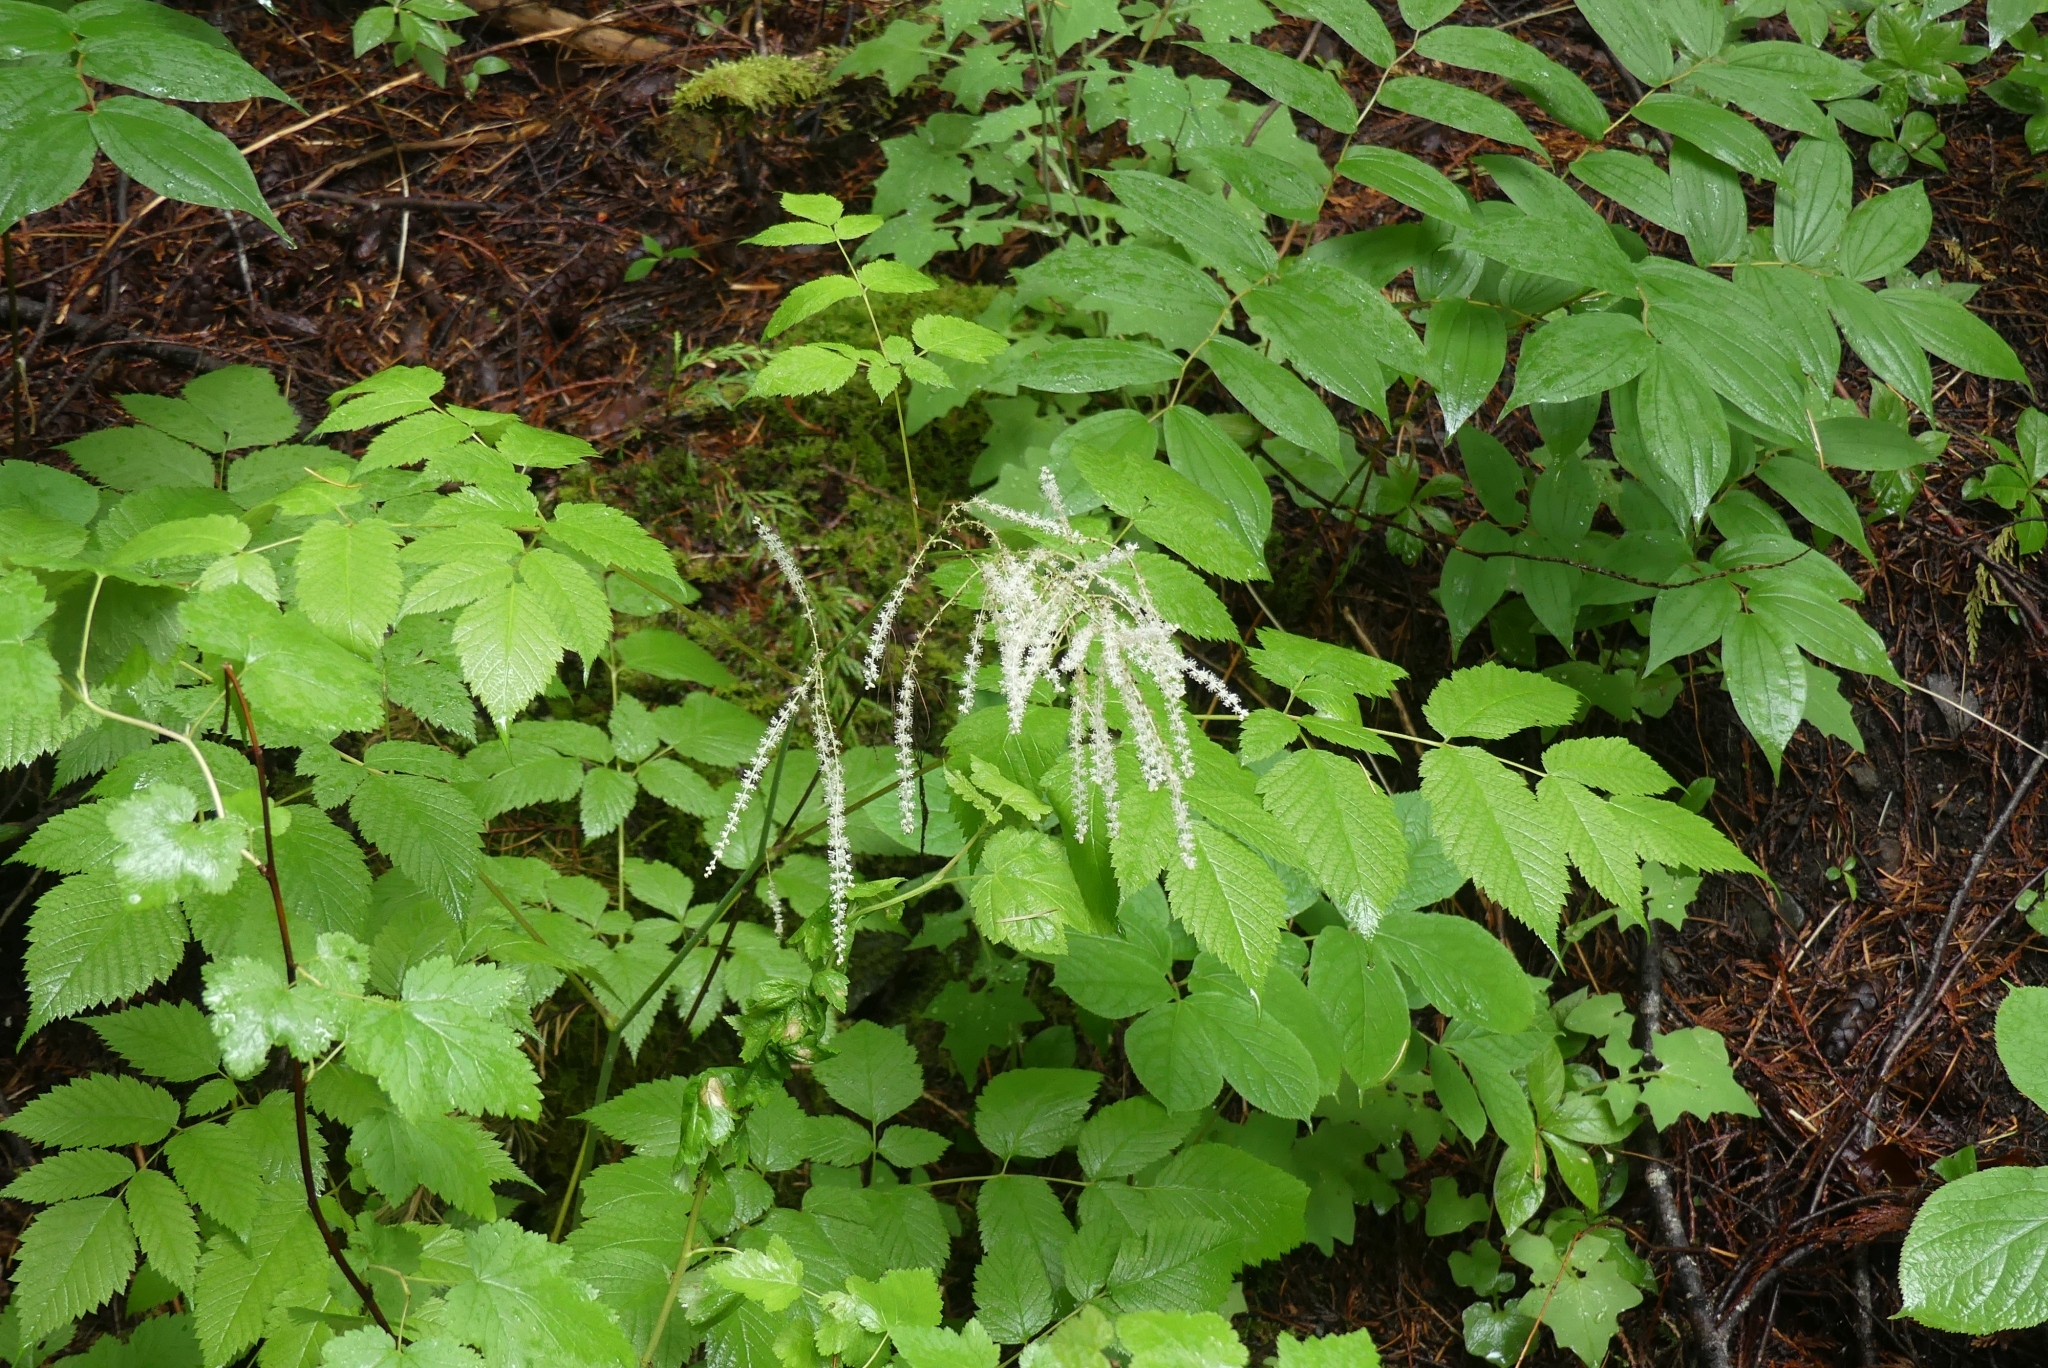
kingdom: Plantae
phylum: Tracheophyta
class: Magnoliopsida
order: Rosales
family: Rosaceae
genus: Aruncus
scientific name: Aruncus dioicus
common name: Buck's-beard
